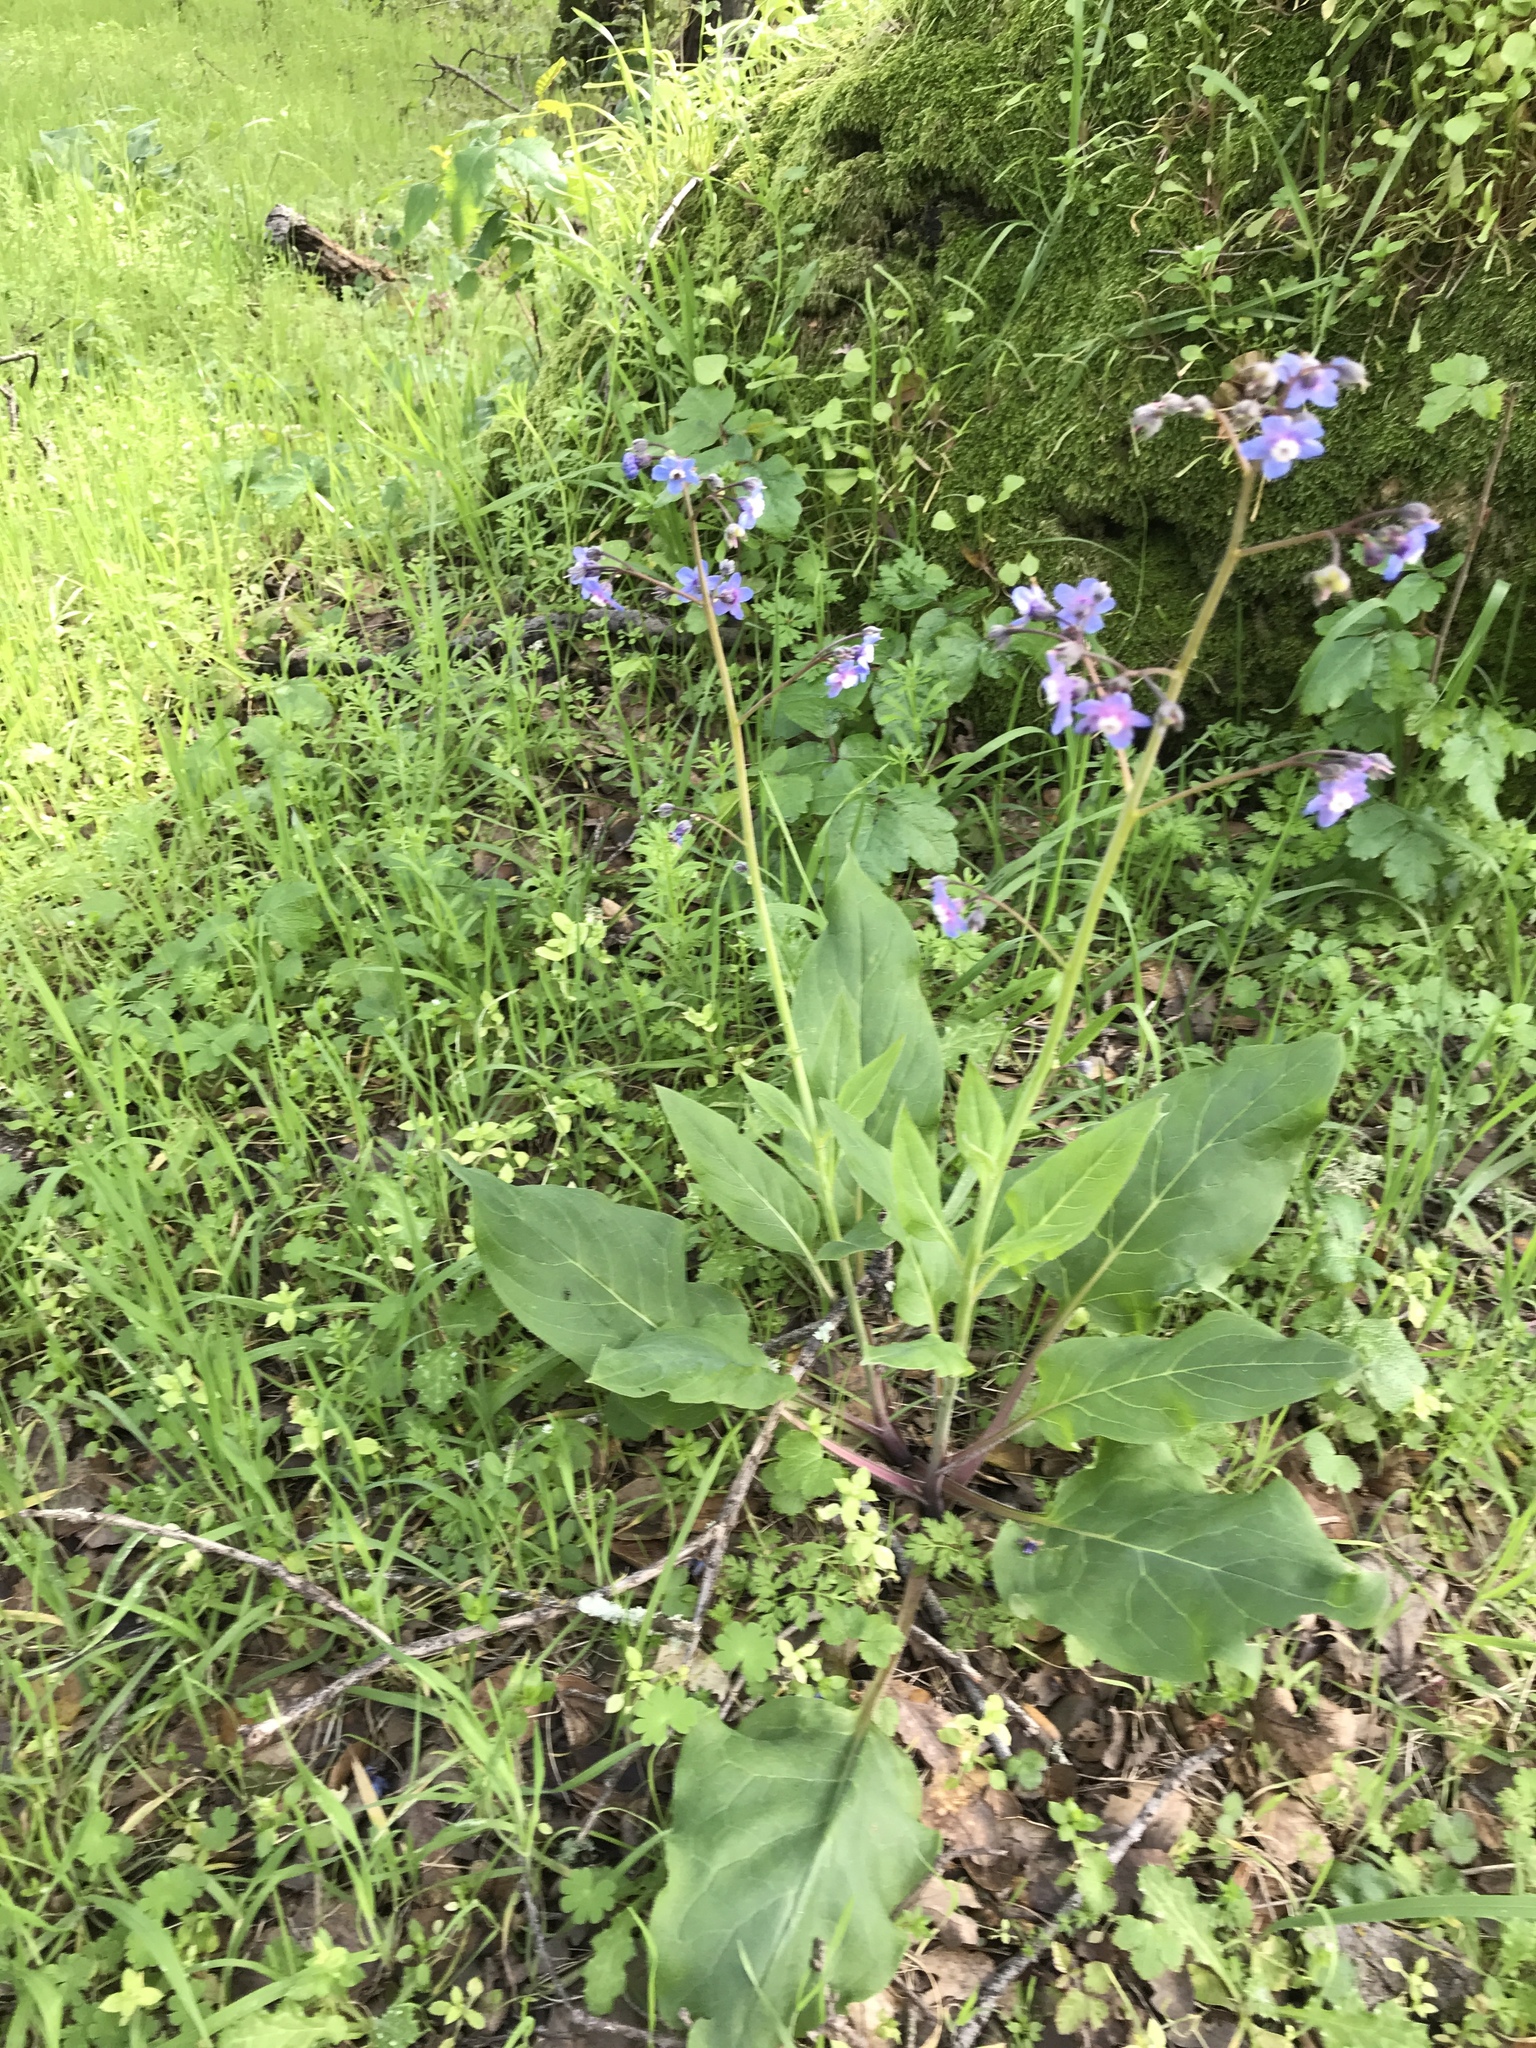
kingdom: Plantae
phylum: Tracheophyta
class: Magnoliopsida
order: Boraginales
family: Boraginaceae
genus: Adelinia
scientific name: Adelinia grande
